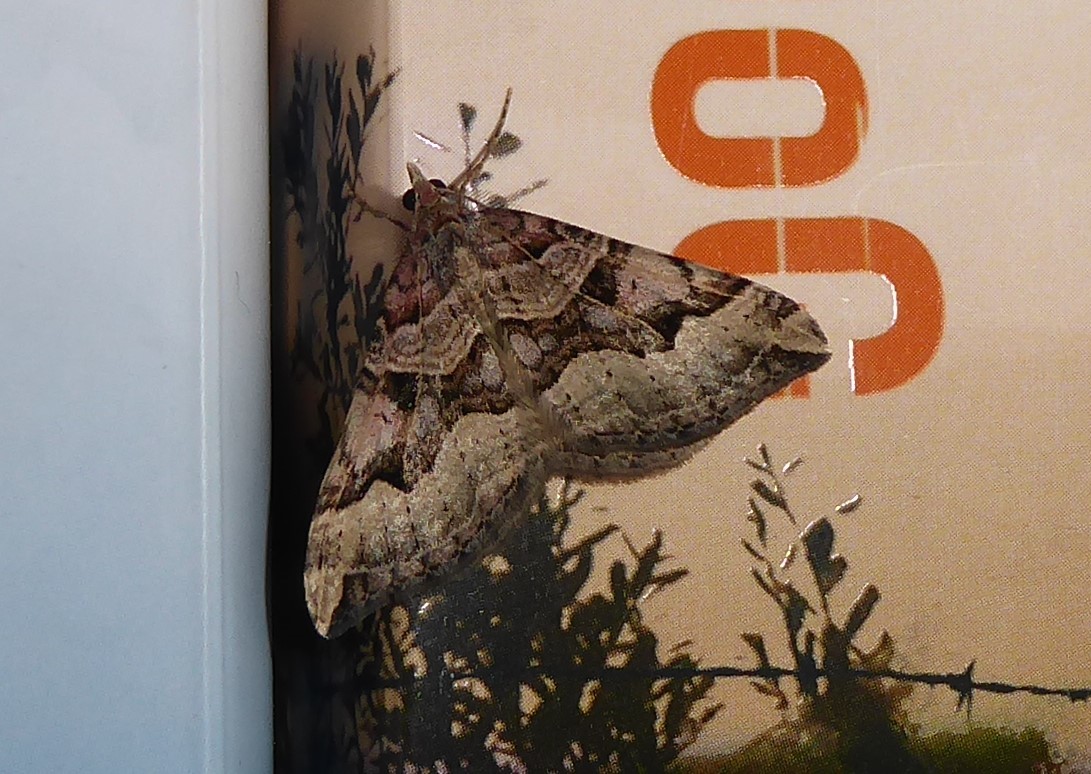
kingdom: Animalia
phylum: Arthropoda
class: Insecta
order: Lepidoptera
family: Geometridae
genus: Xanthorhoe
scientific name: Xanthorhoe semifissata
